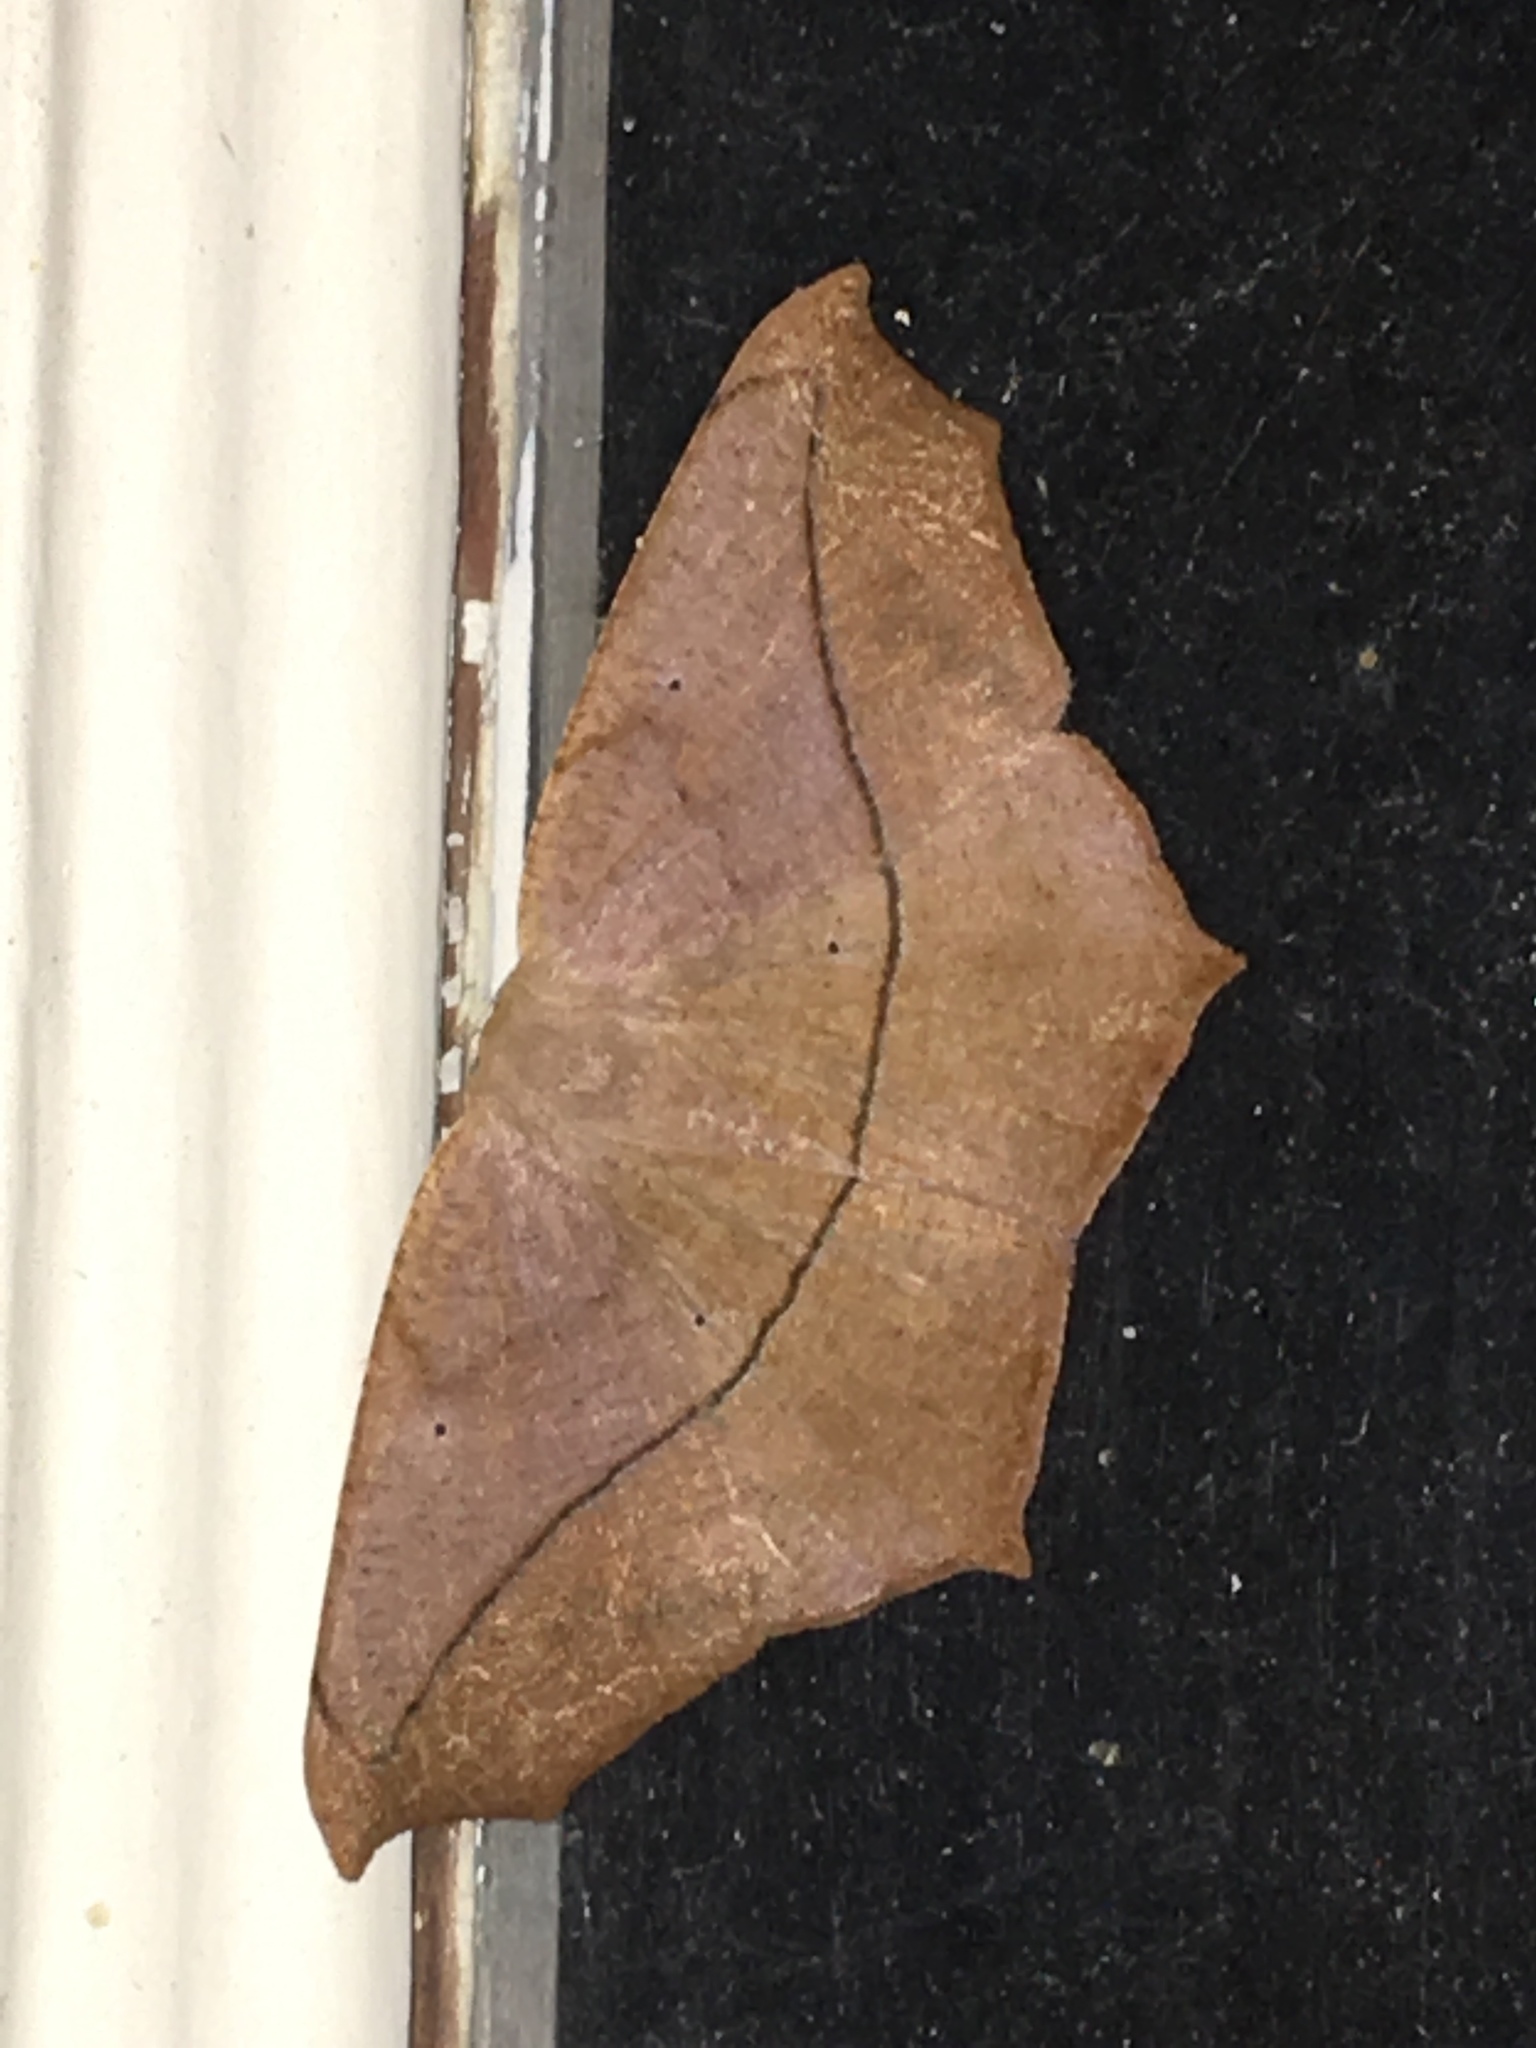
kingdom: Animalia
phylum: Arthropoda
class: Insecta
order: Lepidoptera
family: Geometridae
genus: Prochoerodes
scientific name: Prochoerodes lineola
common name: Large maple spanworm
